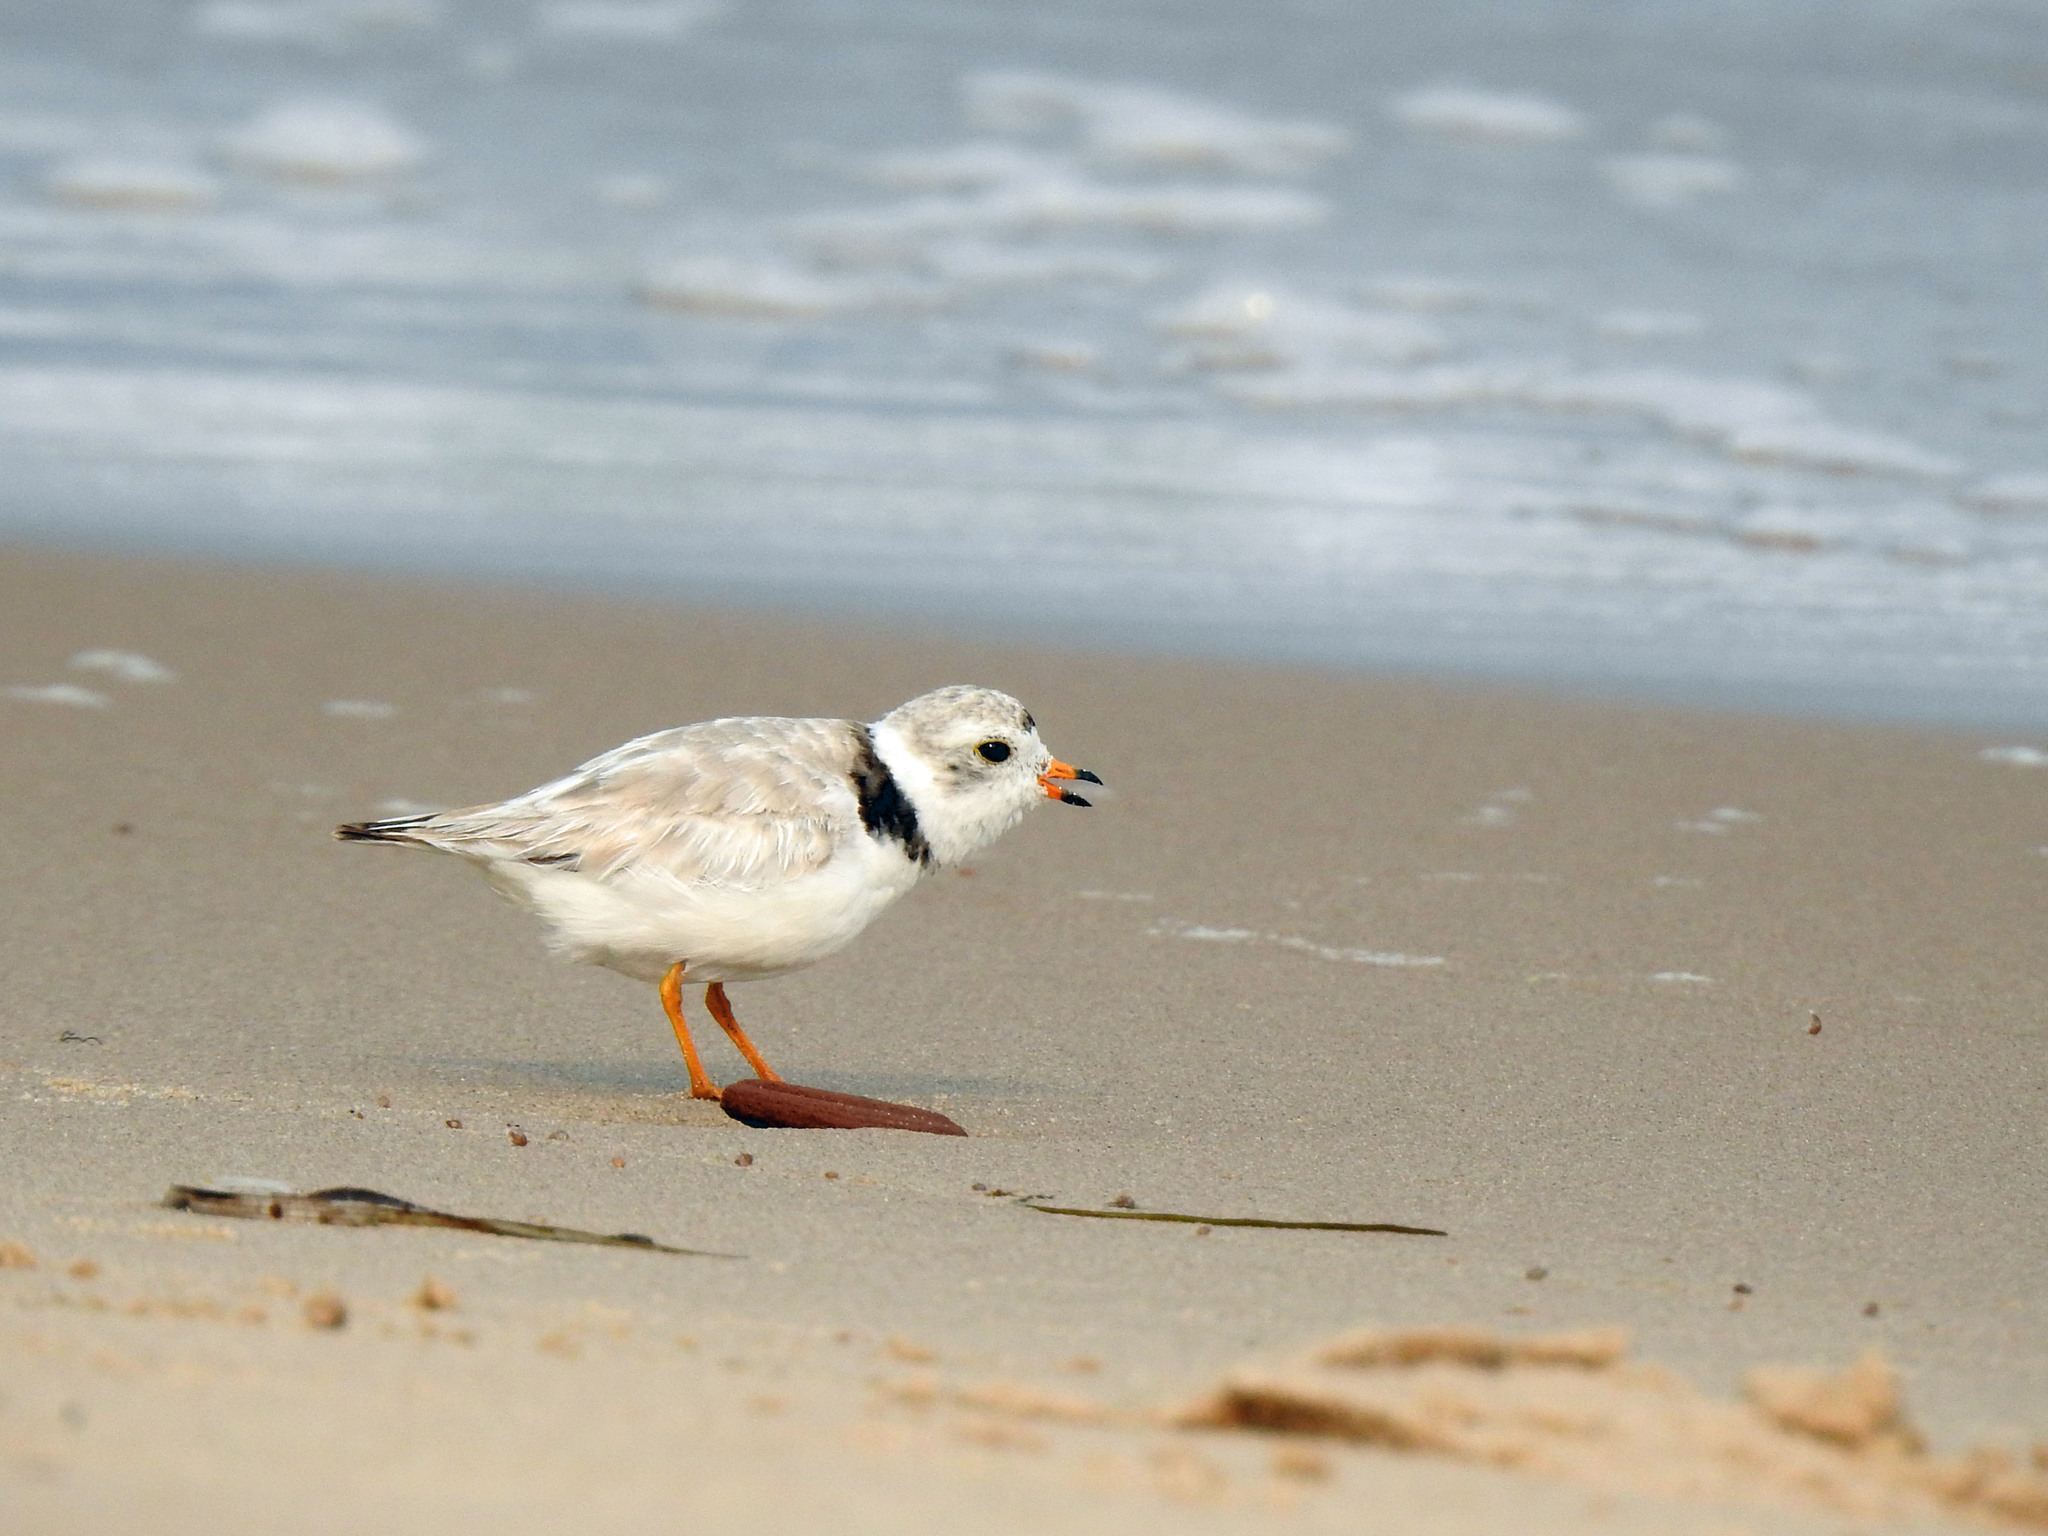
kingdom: Animalia
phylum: Chordata
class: Aves
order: Charadriiformes
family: Charadriidae
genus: Charadrius
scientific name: Charadrius melodus
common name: Piping plover
